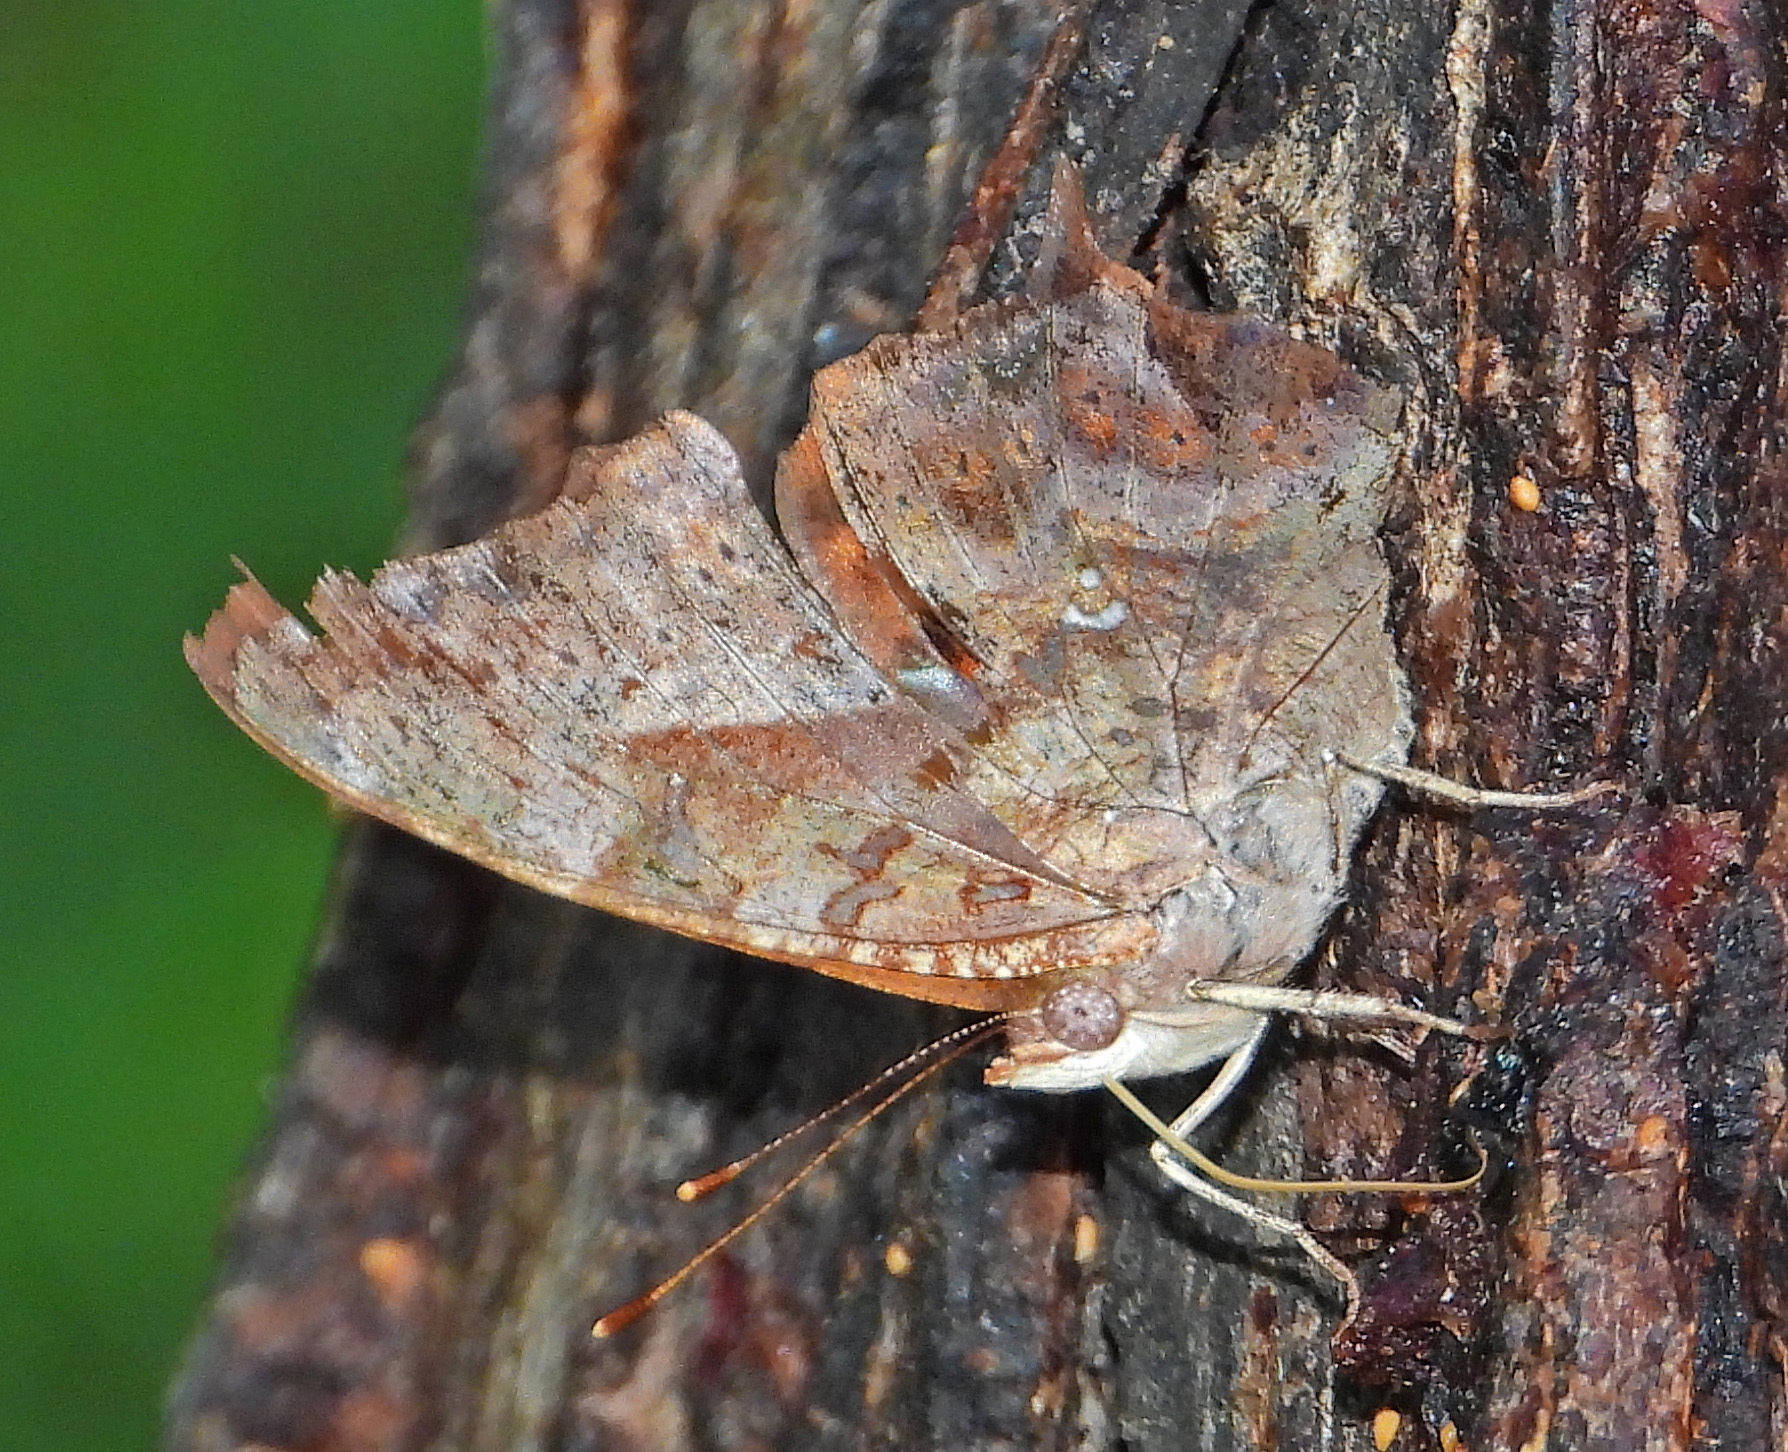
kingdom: Animalia
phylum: Arthropoda
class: Insecta
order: Lepidoptera
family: Nymphalidae
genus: Polygonia
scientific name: Polygonia interrogationis
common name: Question mark
